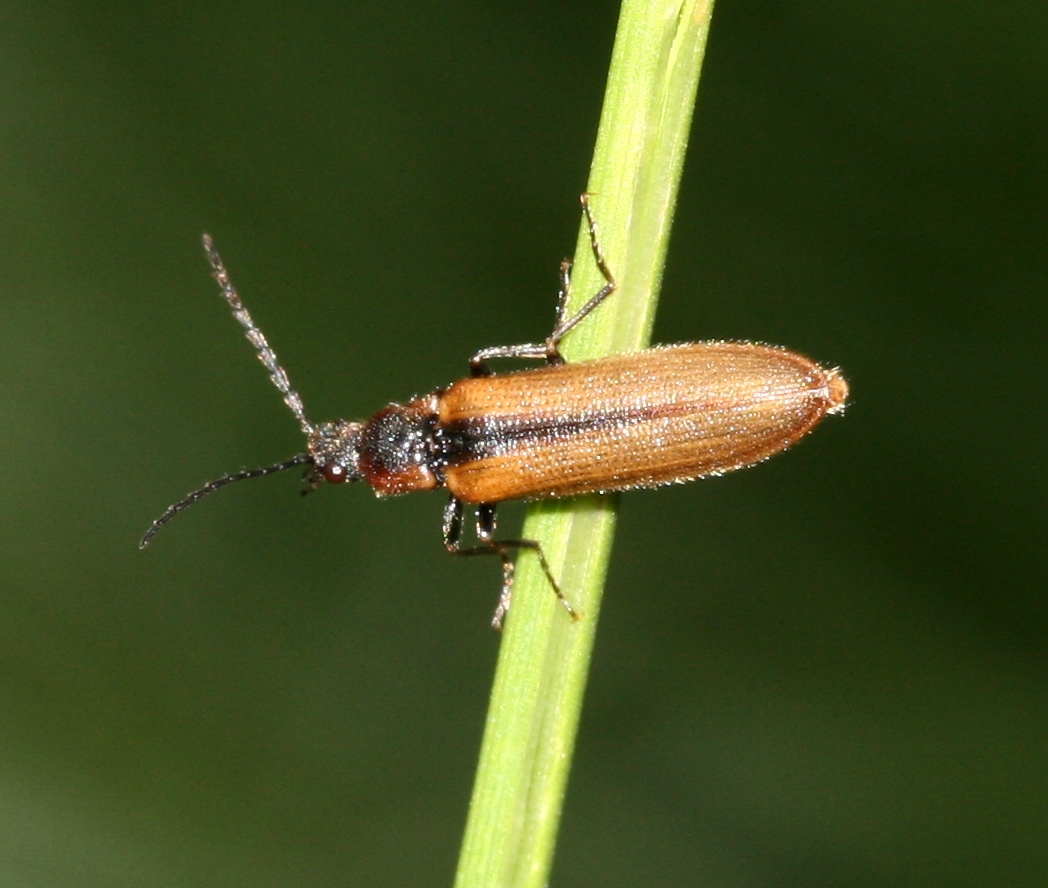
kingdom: Animalia
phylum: Arthropoda
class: Insecta
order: Coleoptera
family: Elateridae
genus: Denticollis
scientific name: Denticollis linearis
